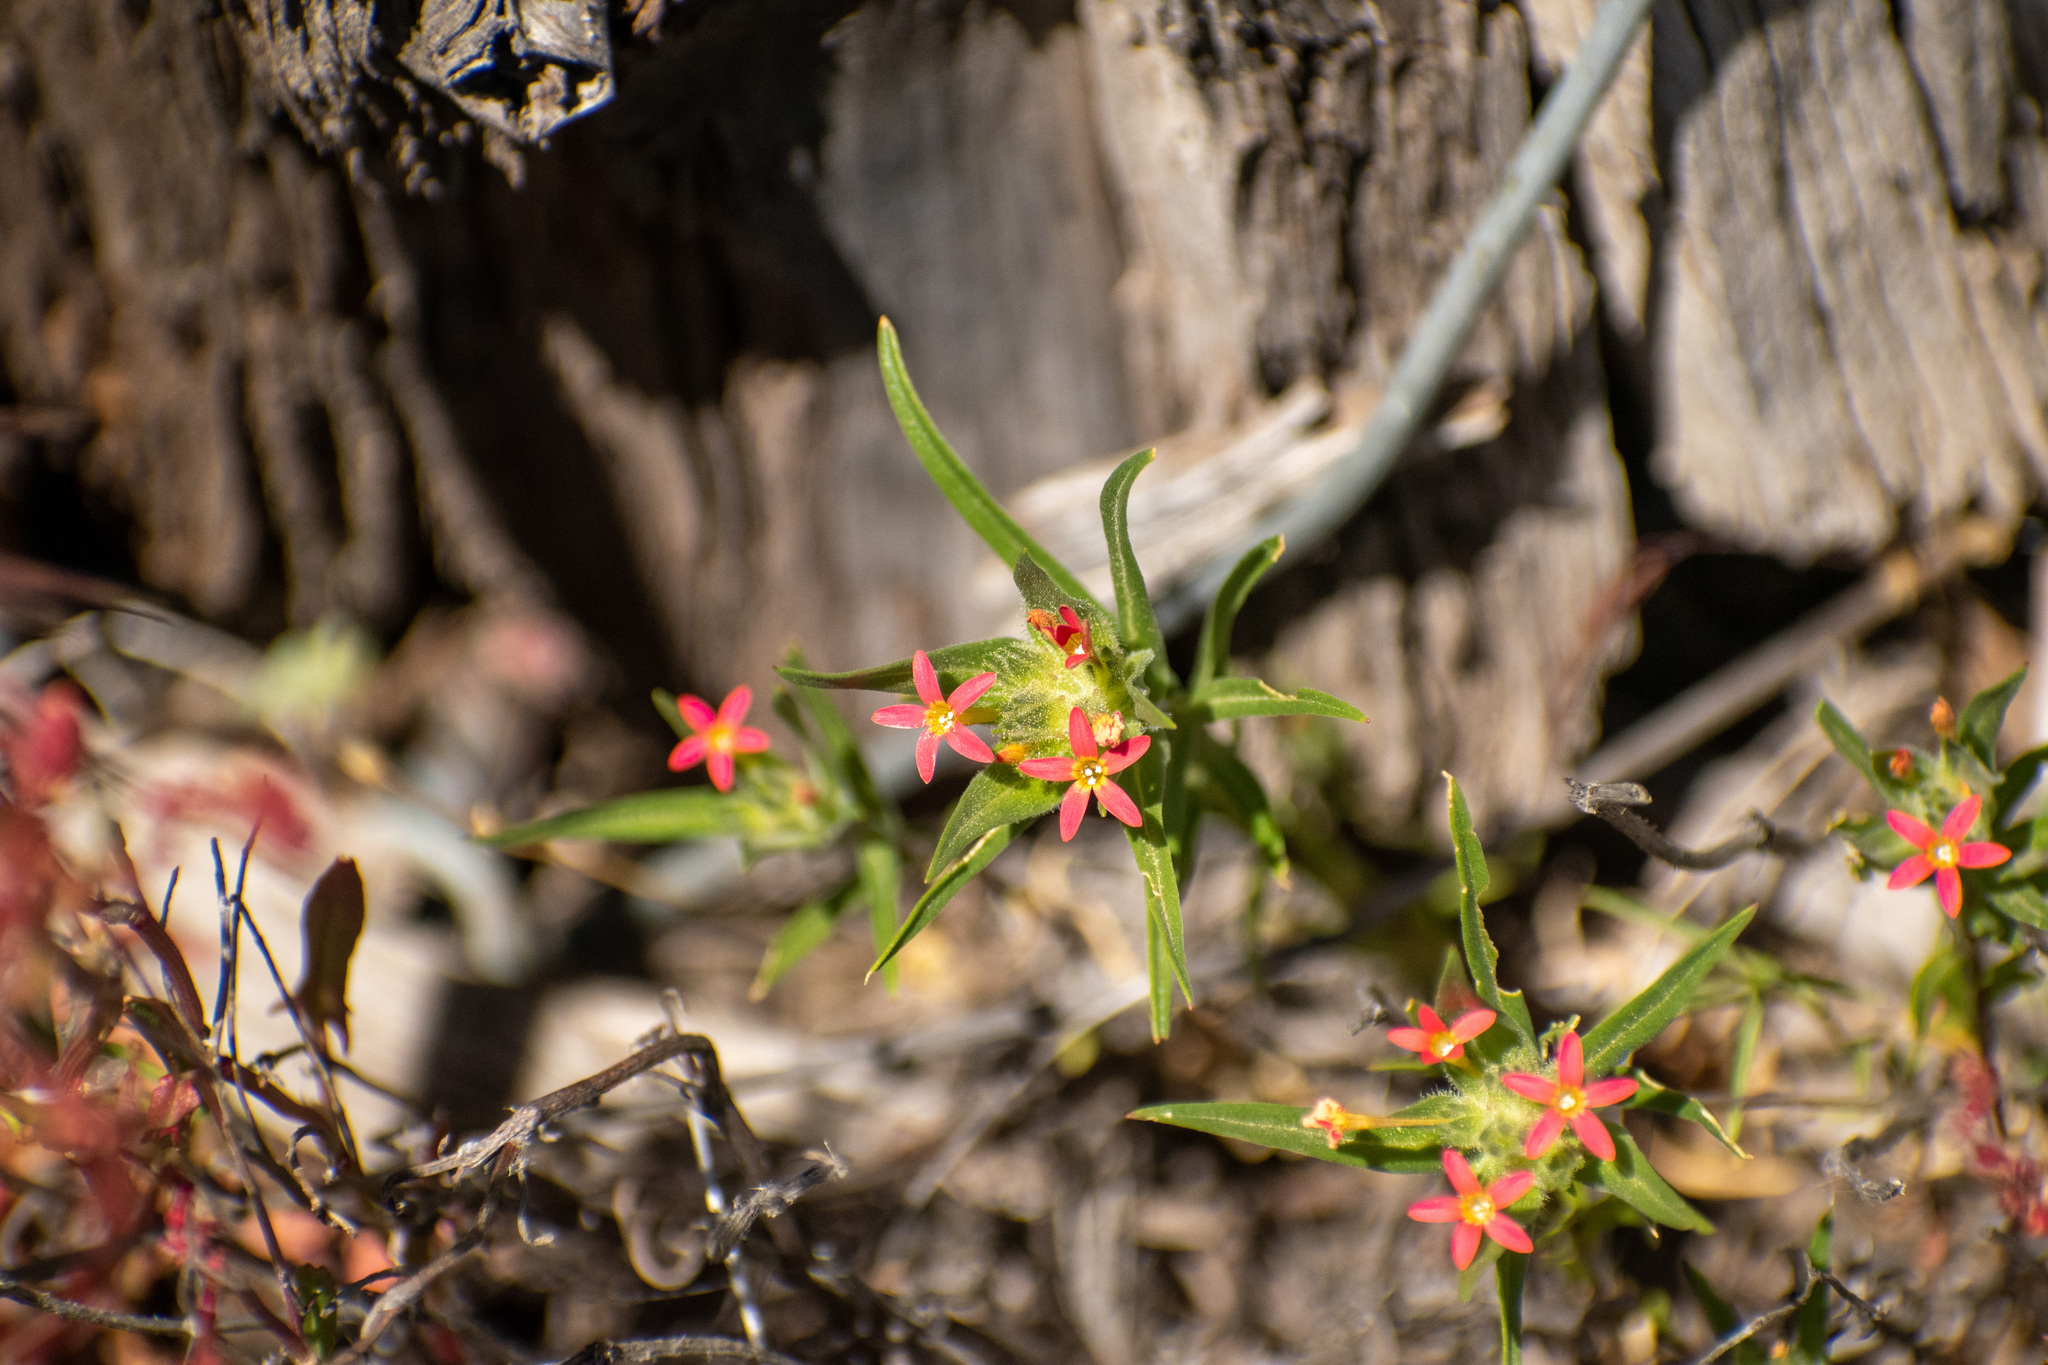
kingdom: Plantae
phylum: Tracheophyta
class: Magnoliopsida
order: Ericales
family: Polemoniaceae
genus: Collomia
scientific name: Collomia biflora
